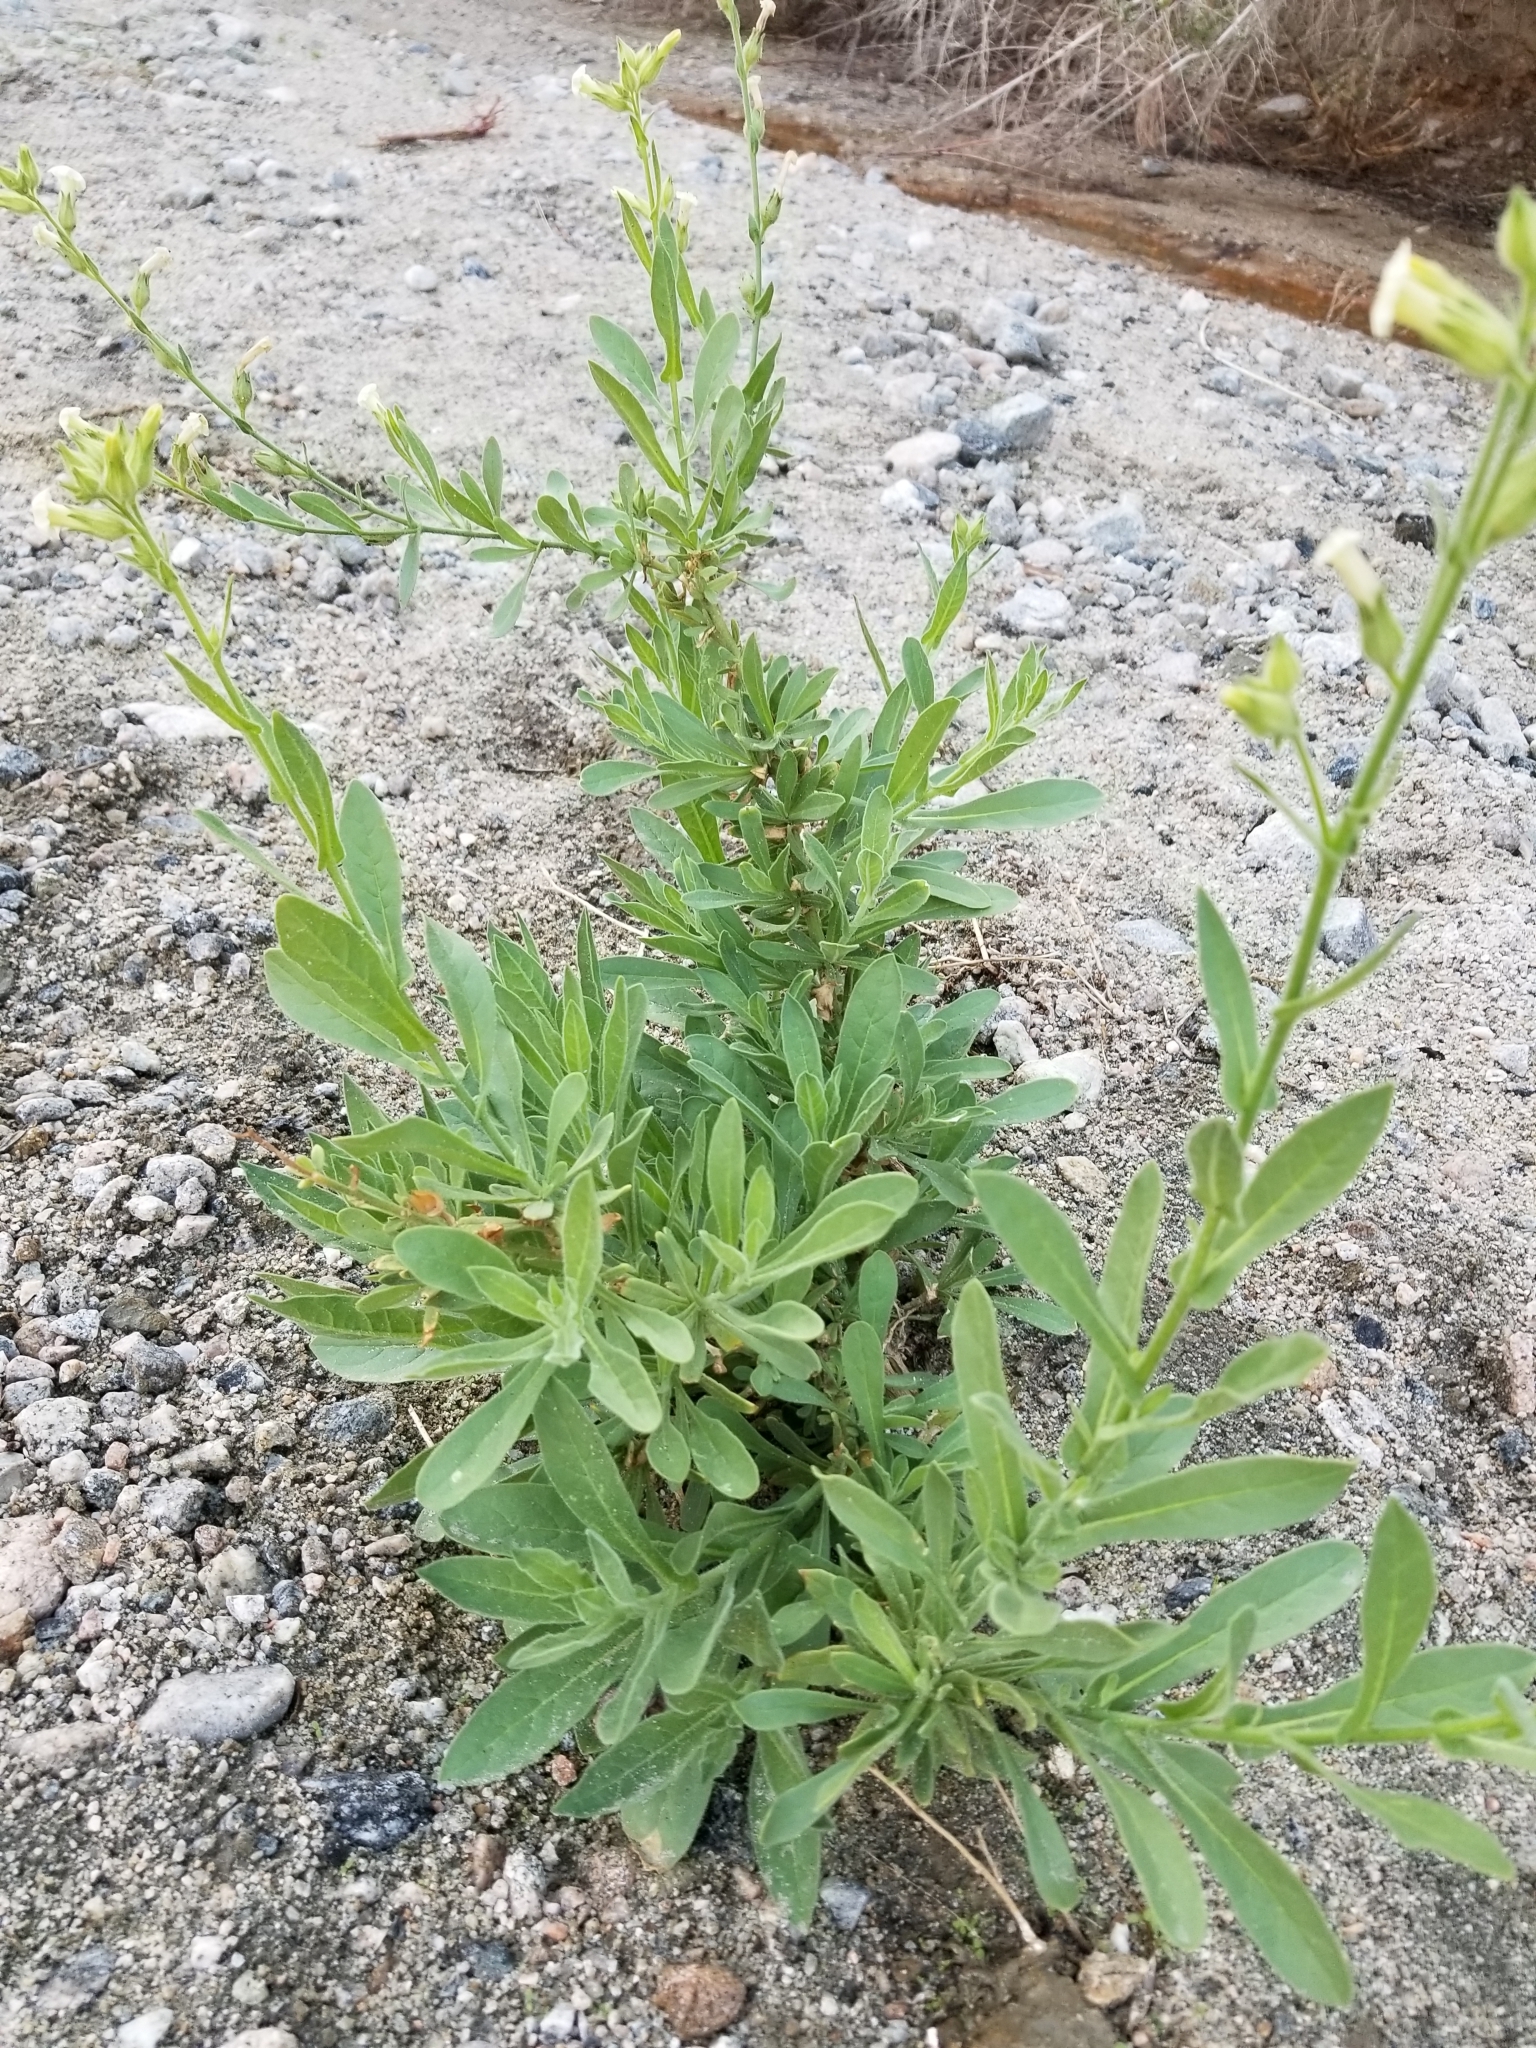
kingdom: Plantae
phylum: Tracheophyta
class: Magnoliopsida
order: Solanales
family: Solanaceae
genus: Nicotiana
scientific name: Nicotiana obtusifolia
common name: Desert tobacco
